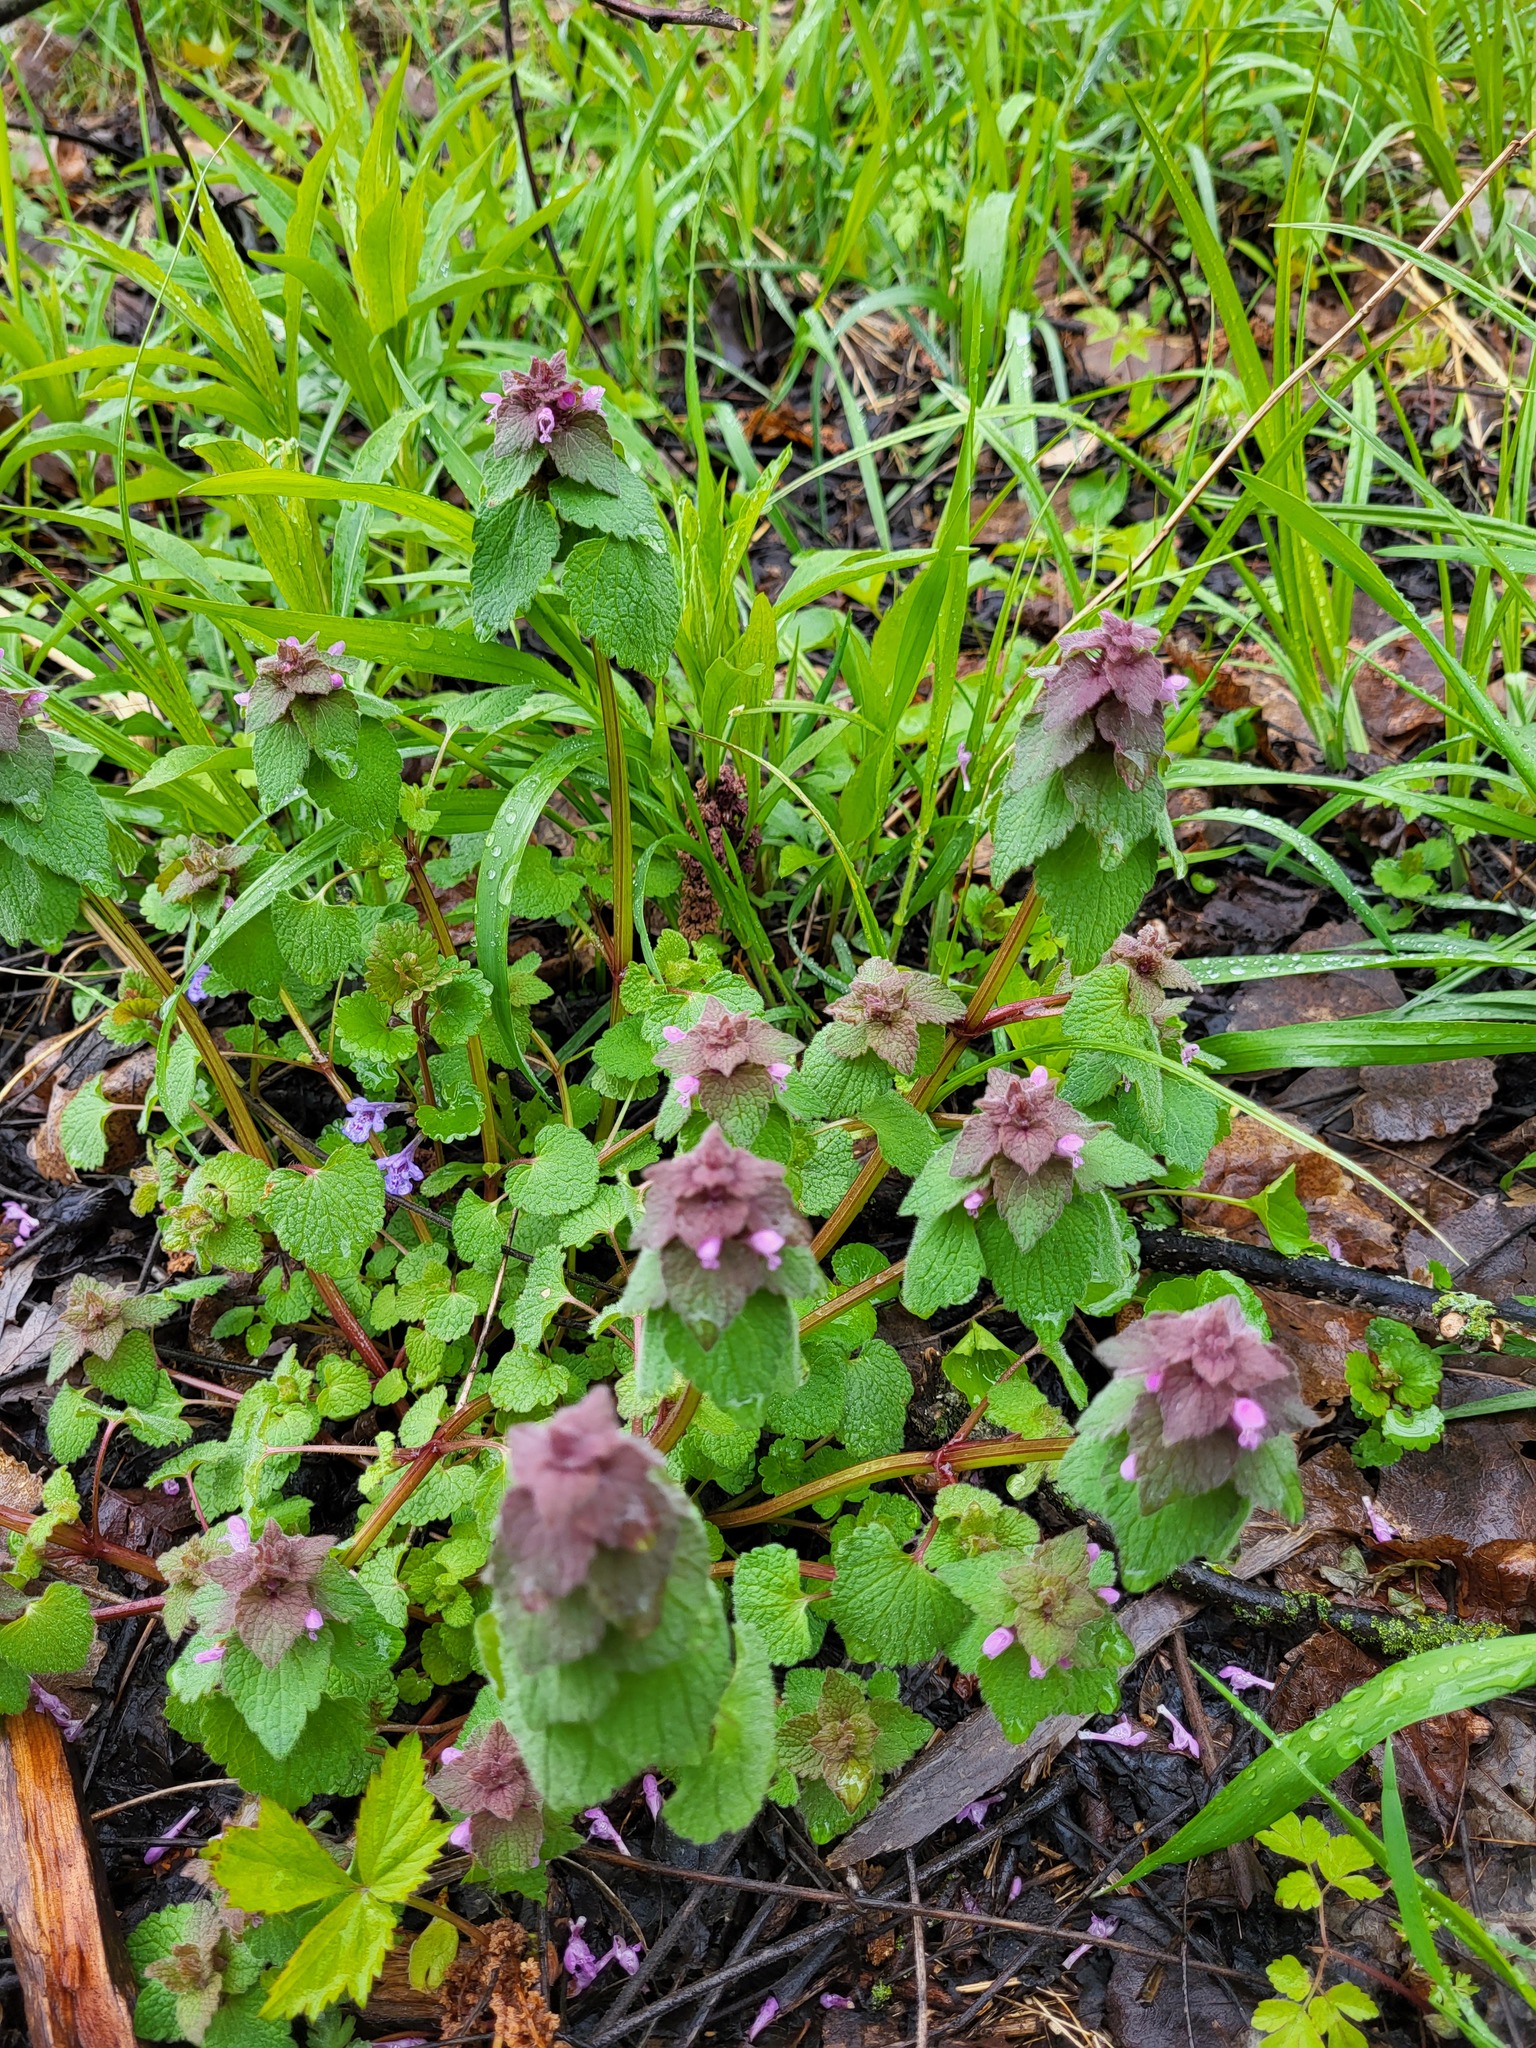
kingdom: Plantae
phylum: Tracheophyta
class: Magnoliopsida
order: Lamiales
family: Lamiaceae
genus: Lamium
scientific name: Lamium purpureum
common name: Red dead-nettle
